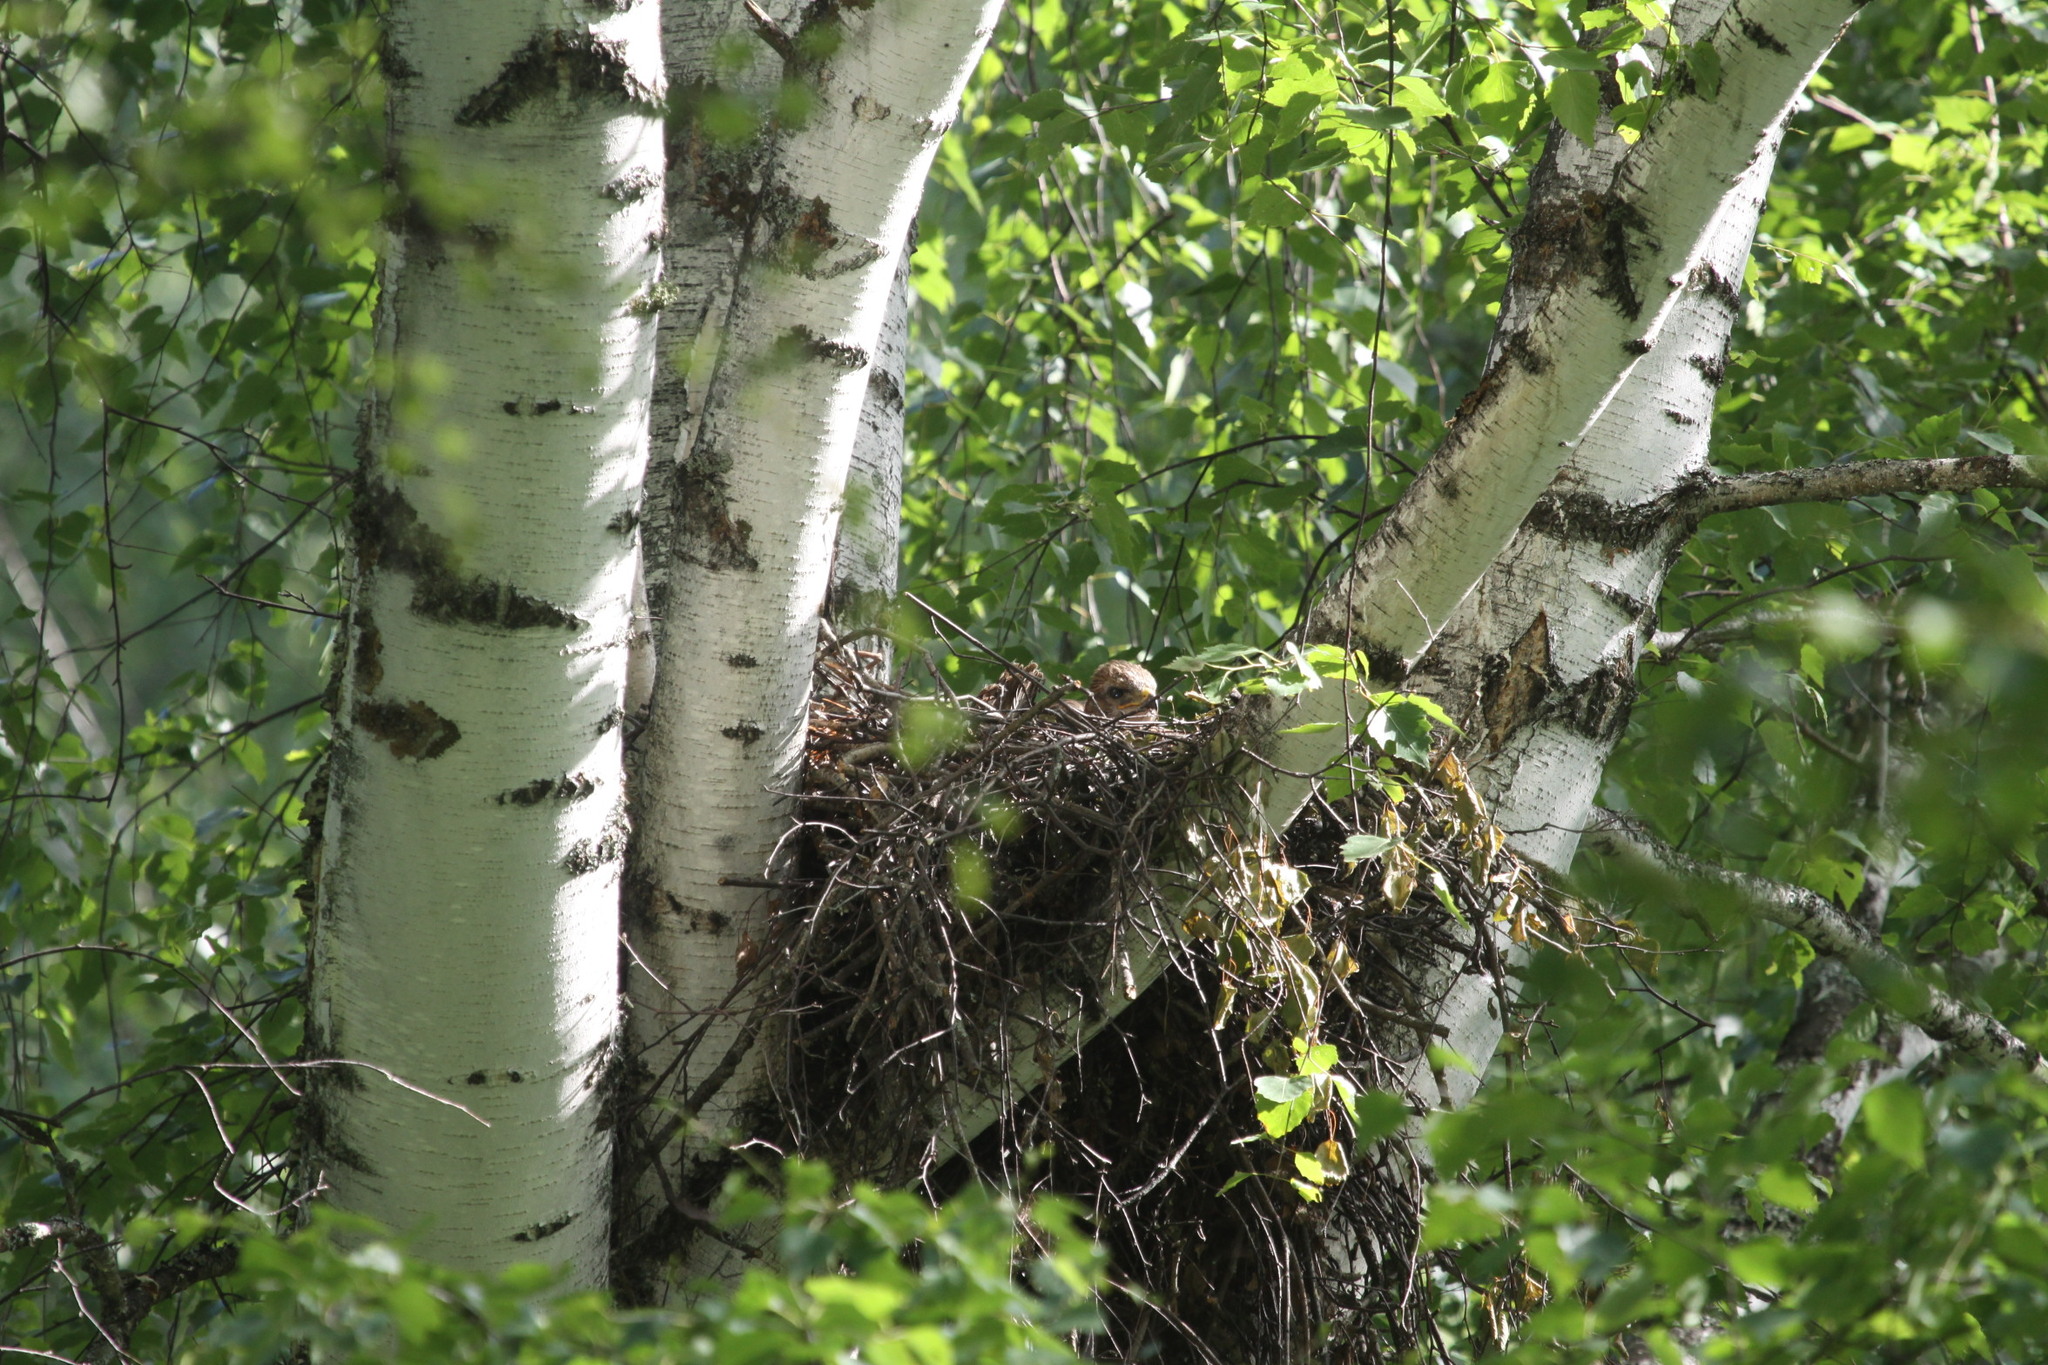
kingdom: Animalia
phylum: Chordata
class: Aves
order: Accipitriformes
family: Accipitridae
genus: Buteo
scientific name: Buteo buteo
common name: Common buzzard
